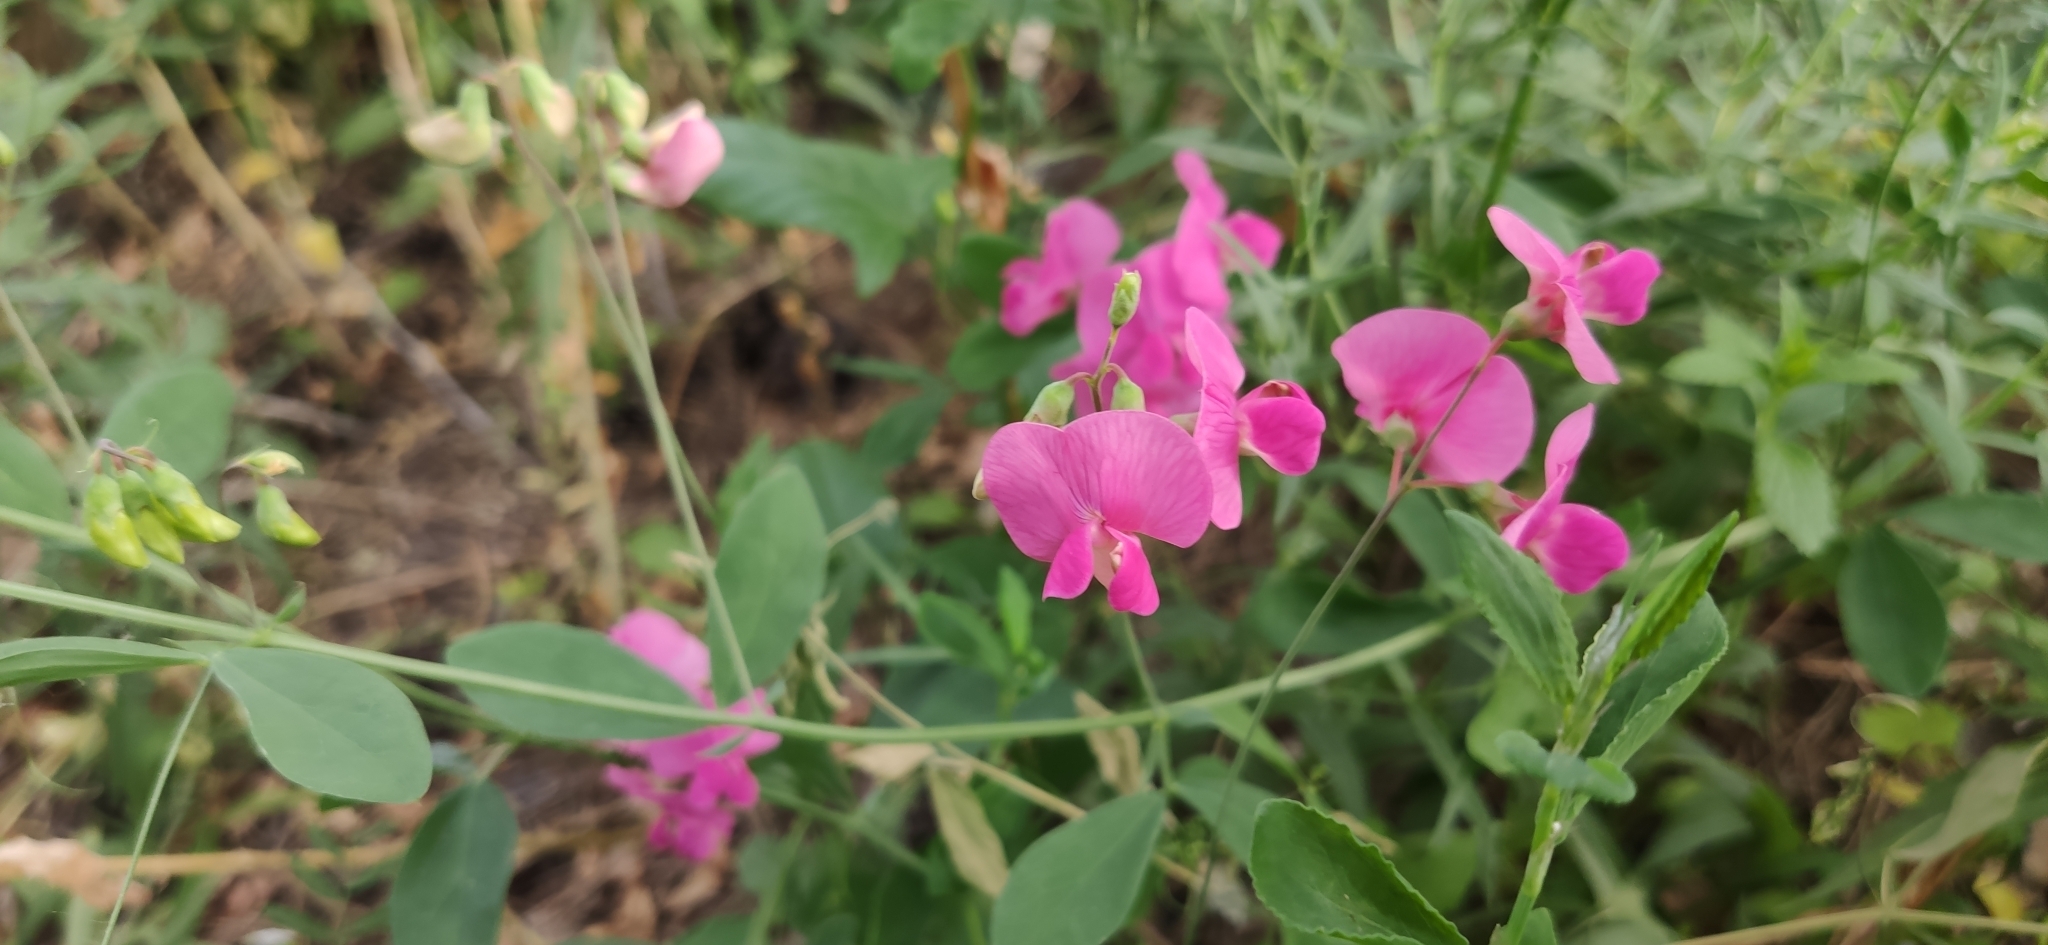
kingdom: Plantae
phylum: Tracheophyta
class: Magnoliopsida
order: Fabales
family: Fabaceae
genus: Lathyrus
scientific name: Lathyrus tuberosus
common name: Tuberous pea
